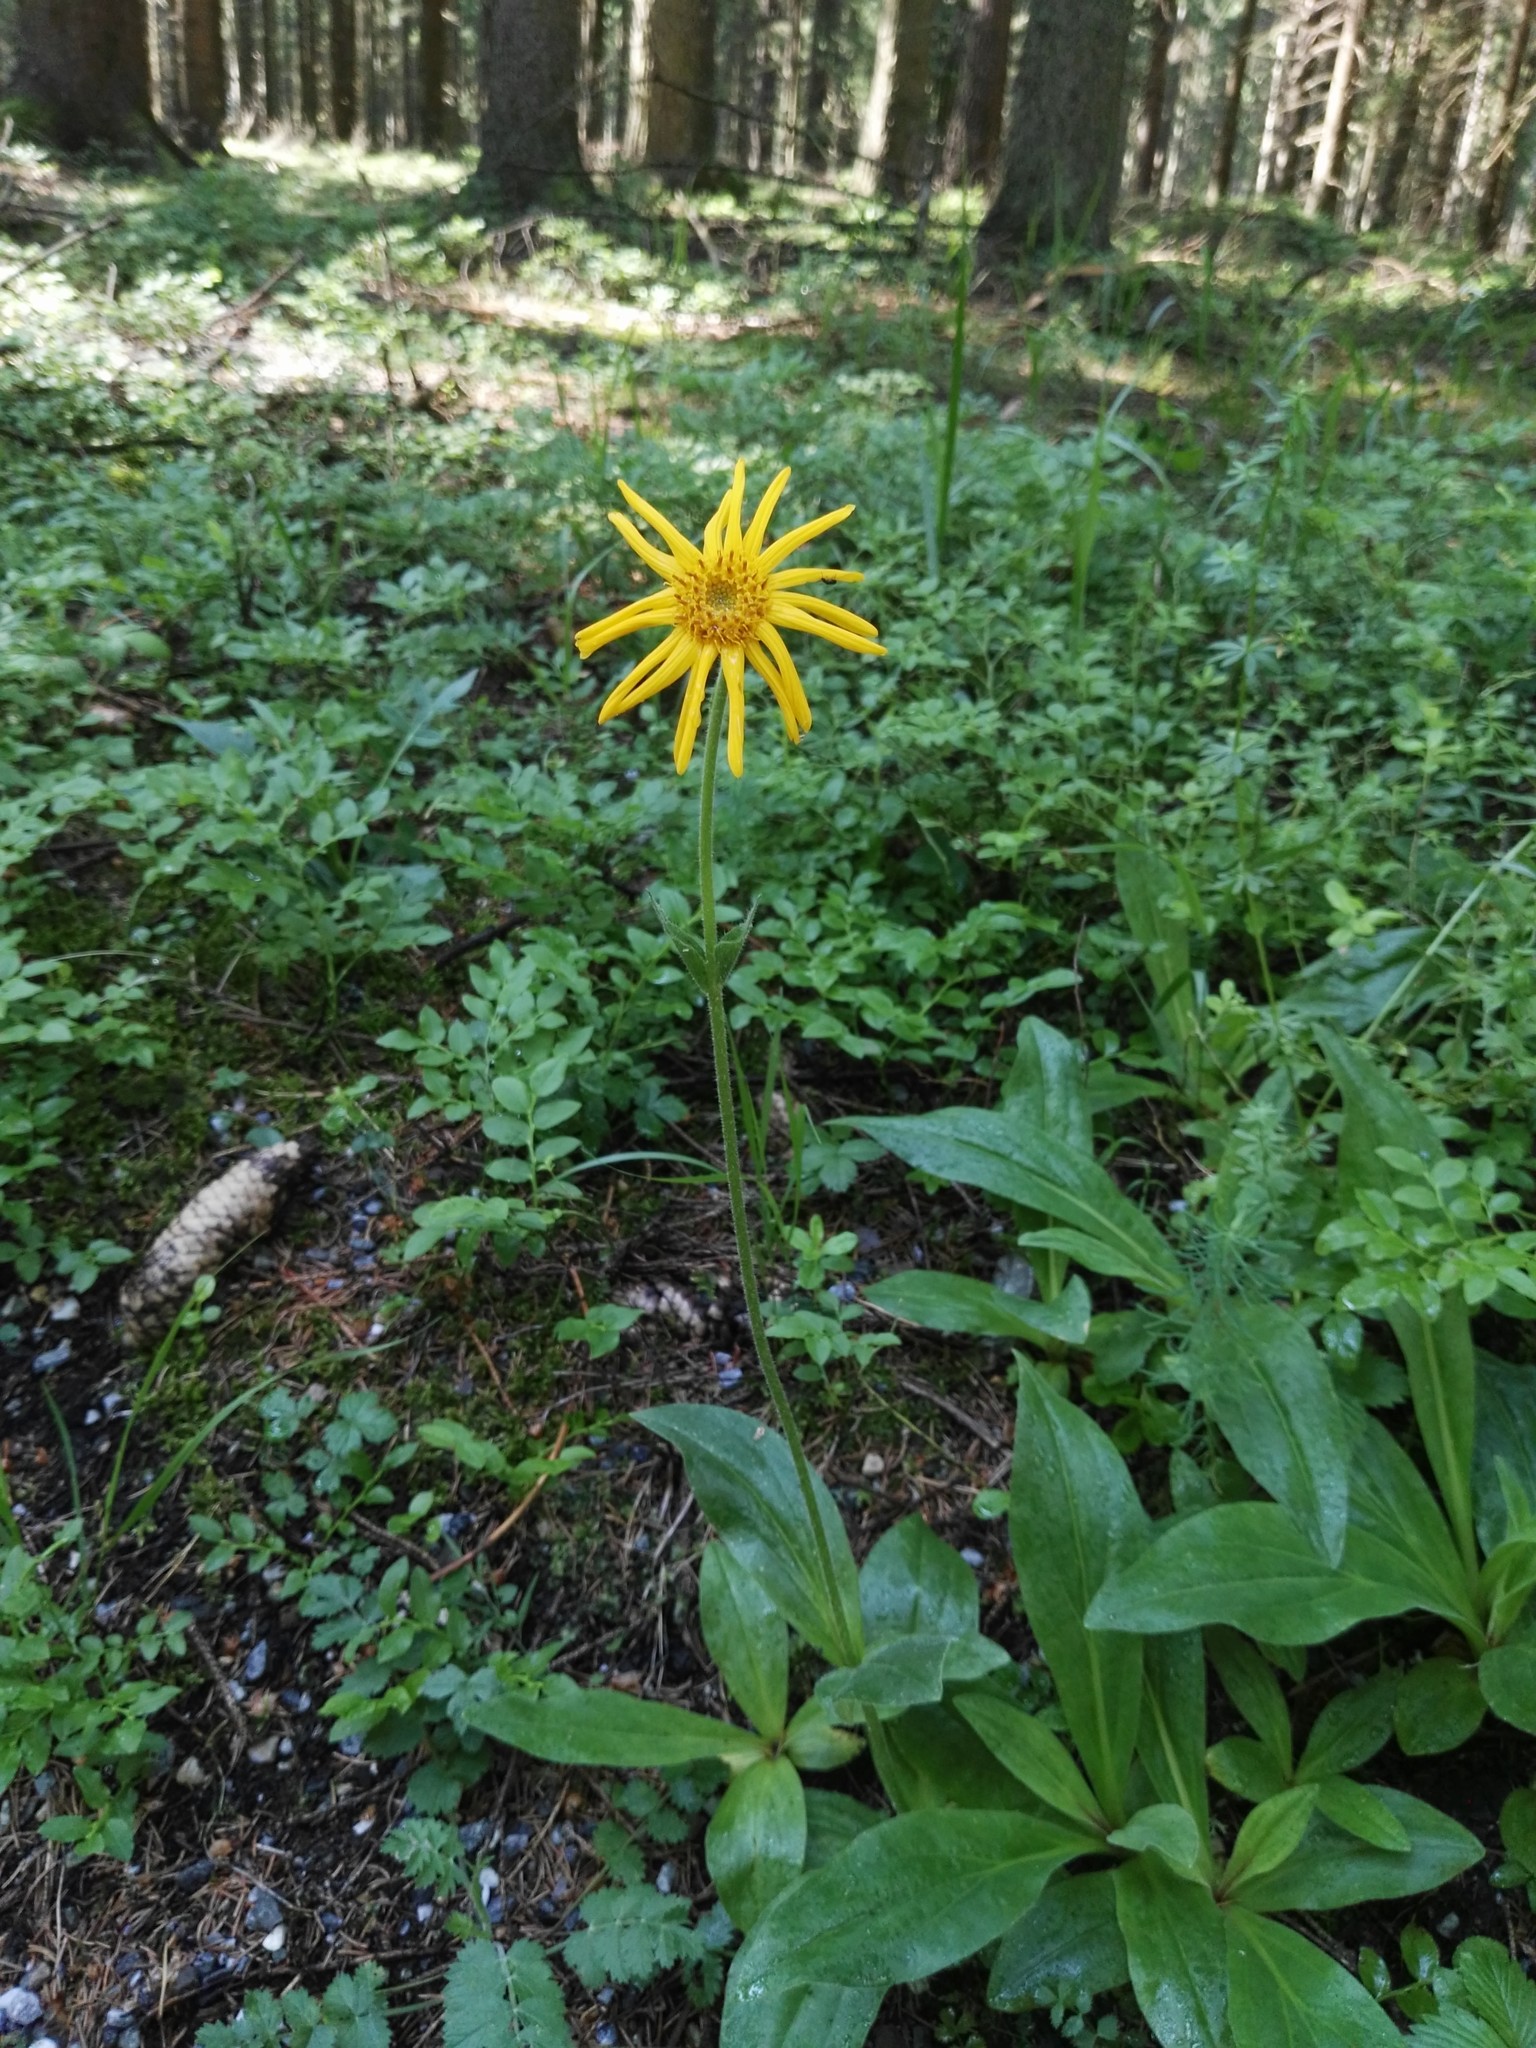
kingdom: Plantae
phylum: Tracheophyta
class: Magnoliopsida
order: Asterales
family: Asteraceae
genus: Arnica
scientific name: Arnica montana
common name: Leopard's bane
